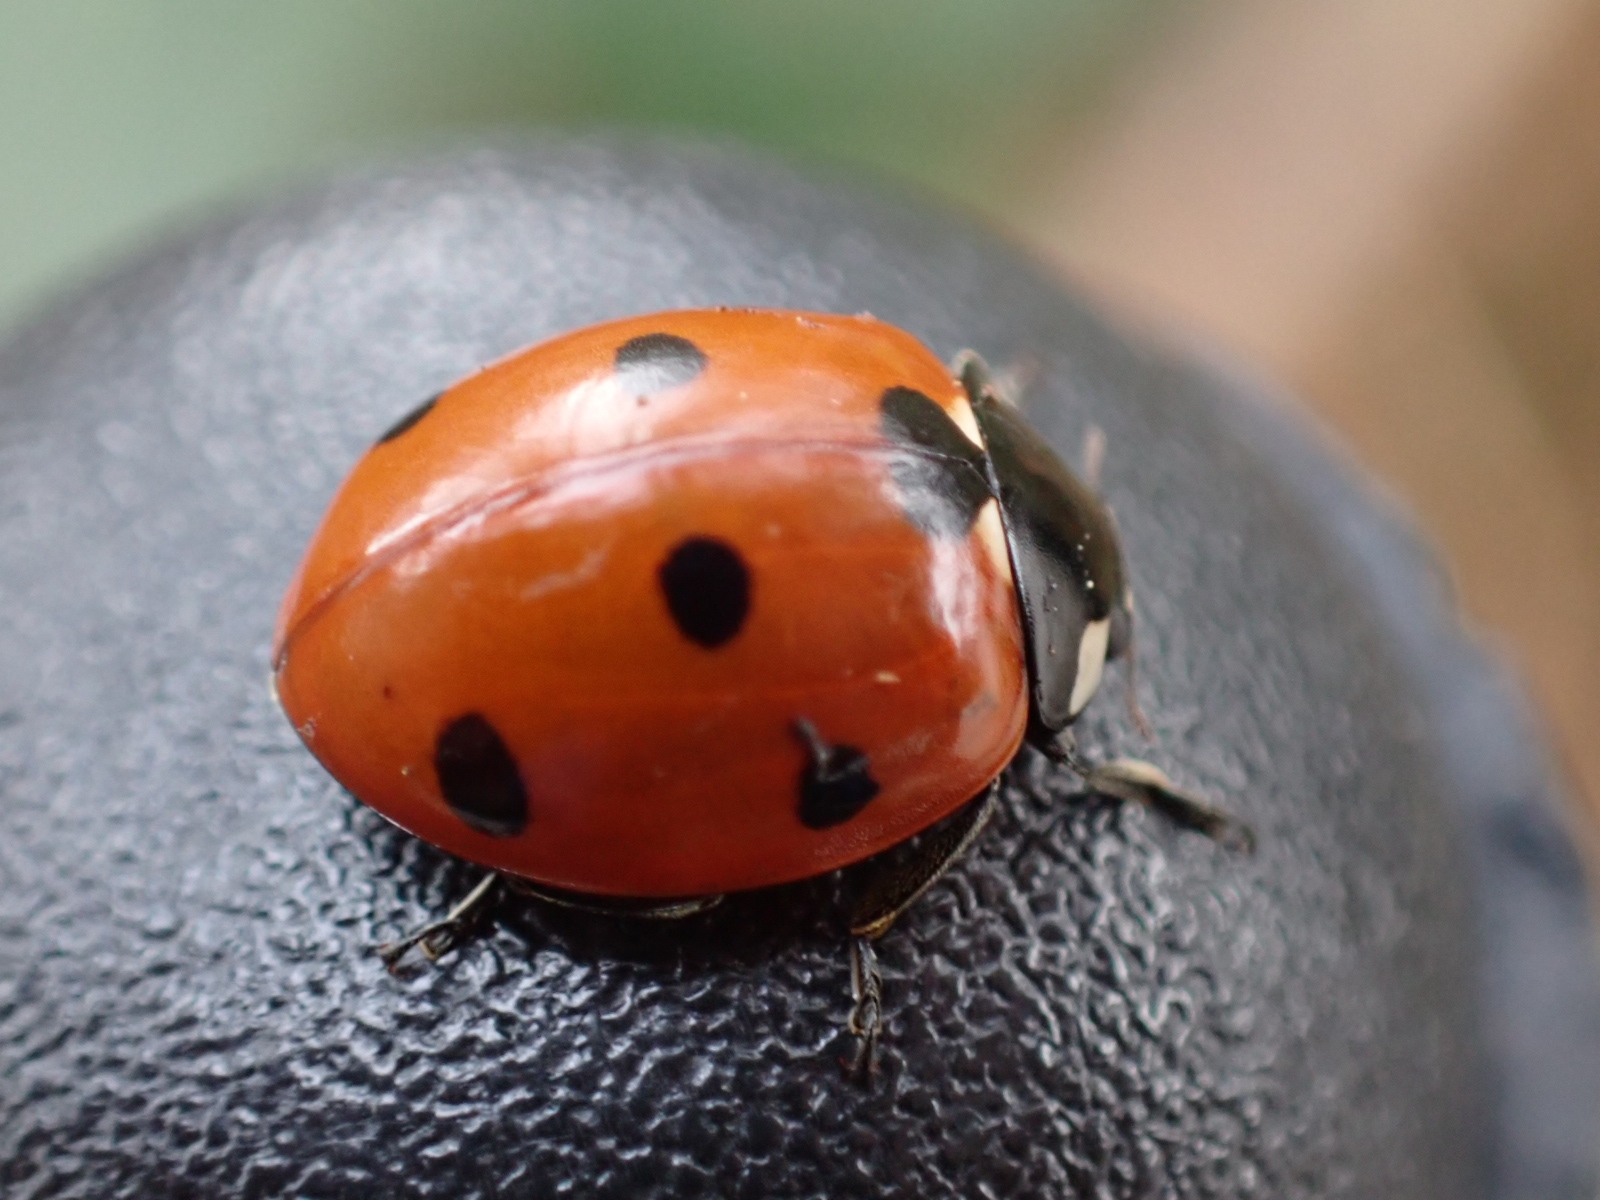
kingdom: Animalia
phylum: Arthropoda
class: Insecta
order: Coleoptera
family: Coccinellidae
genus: Coccinella
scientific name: Coccinella septempunctata
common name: Sevenspotted lady beetle
